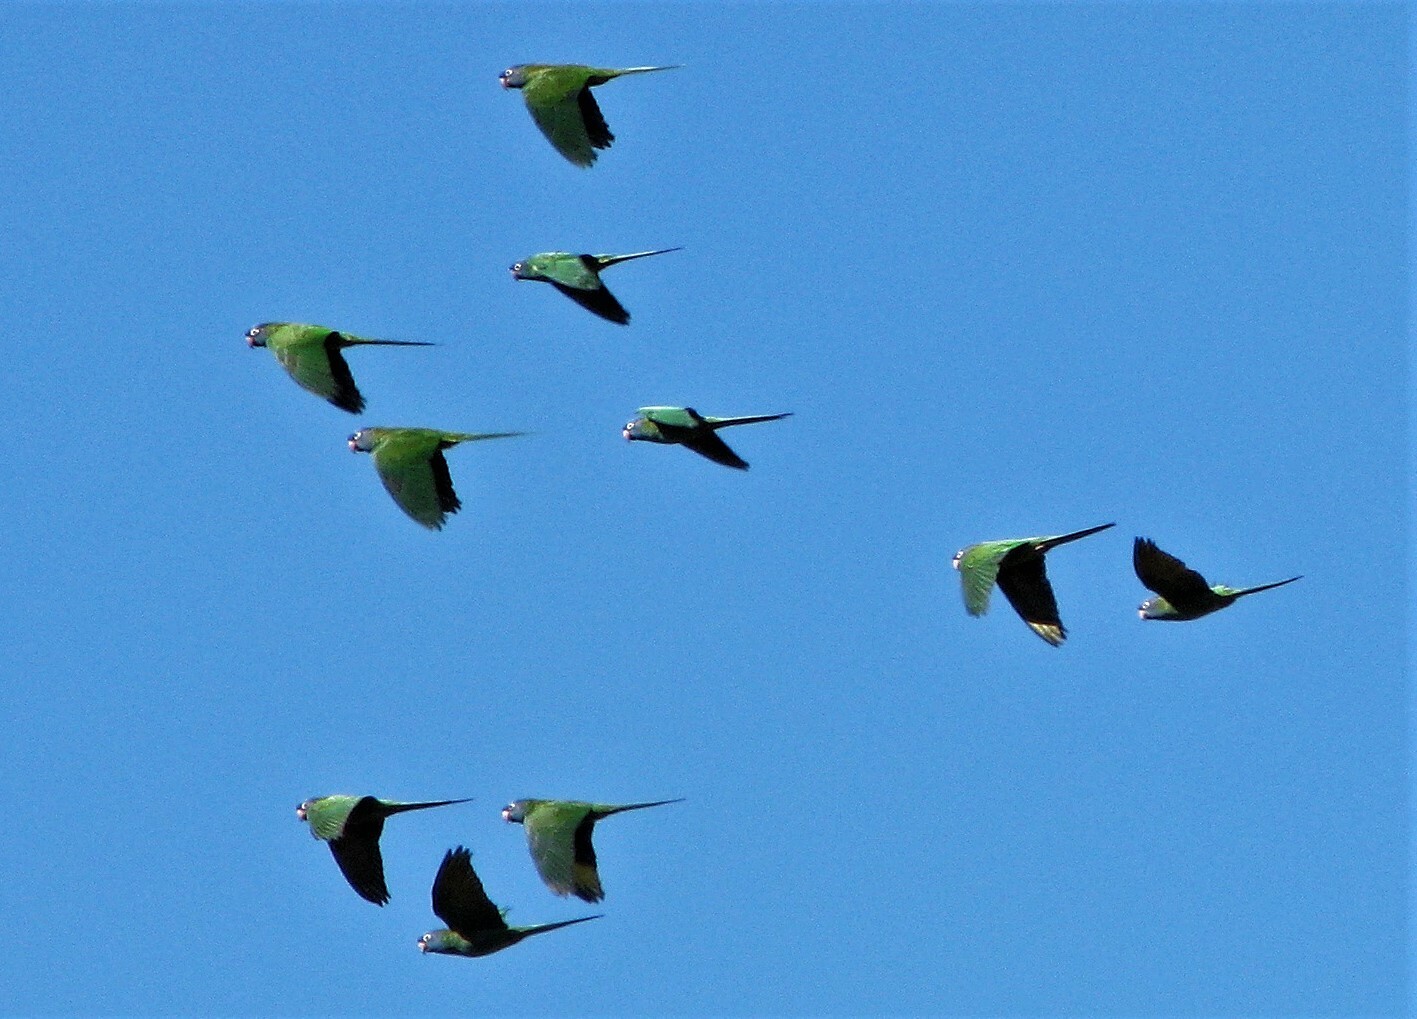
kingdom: Animalia
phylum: Chordata
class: Aves
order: Psittaciformes
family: Psittacidae
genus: Aratinga
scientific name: Aratinga acuticaudata
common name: Blue-crowned parakeet
